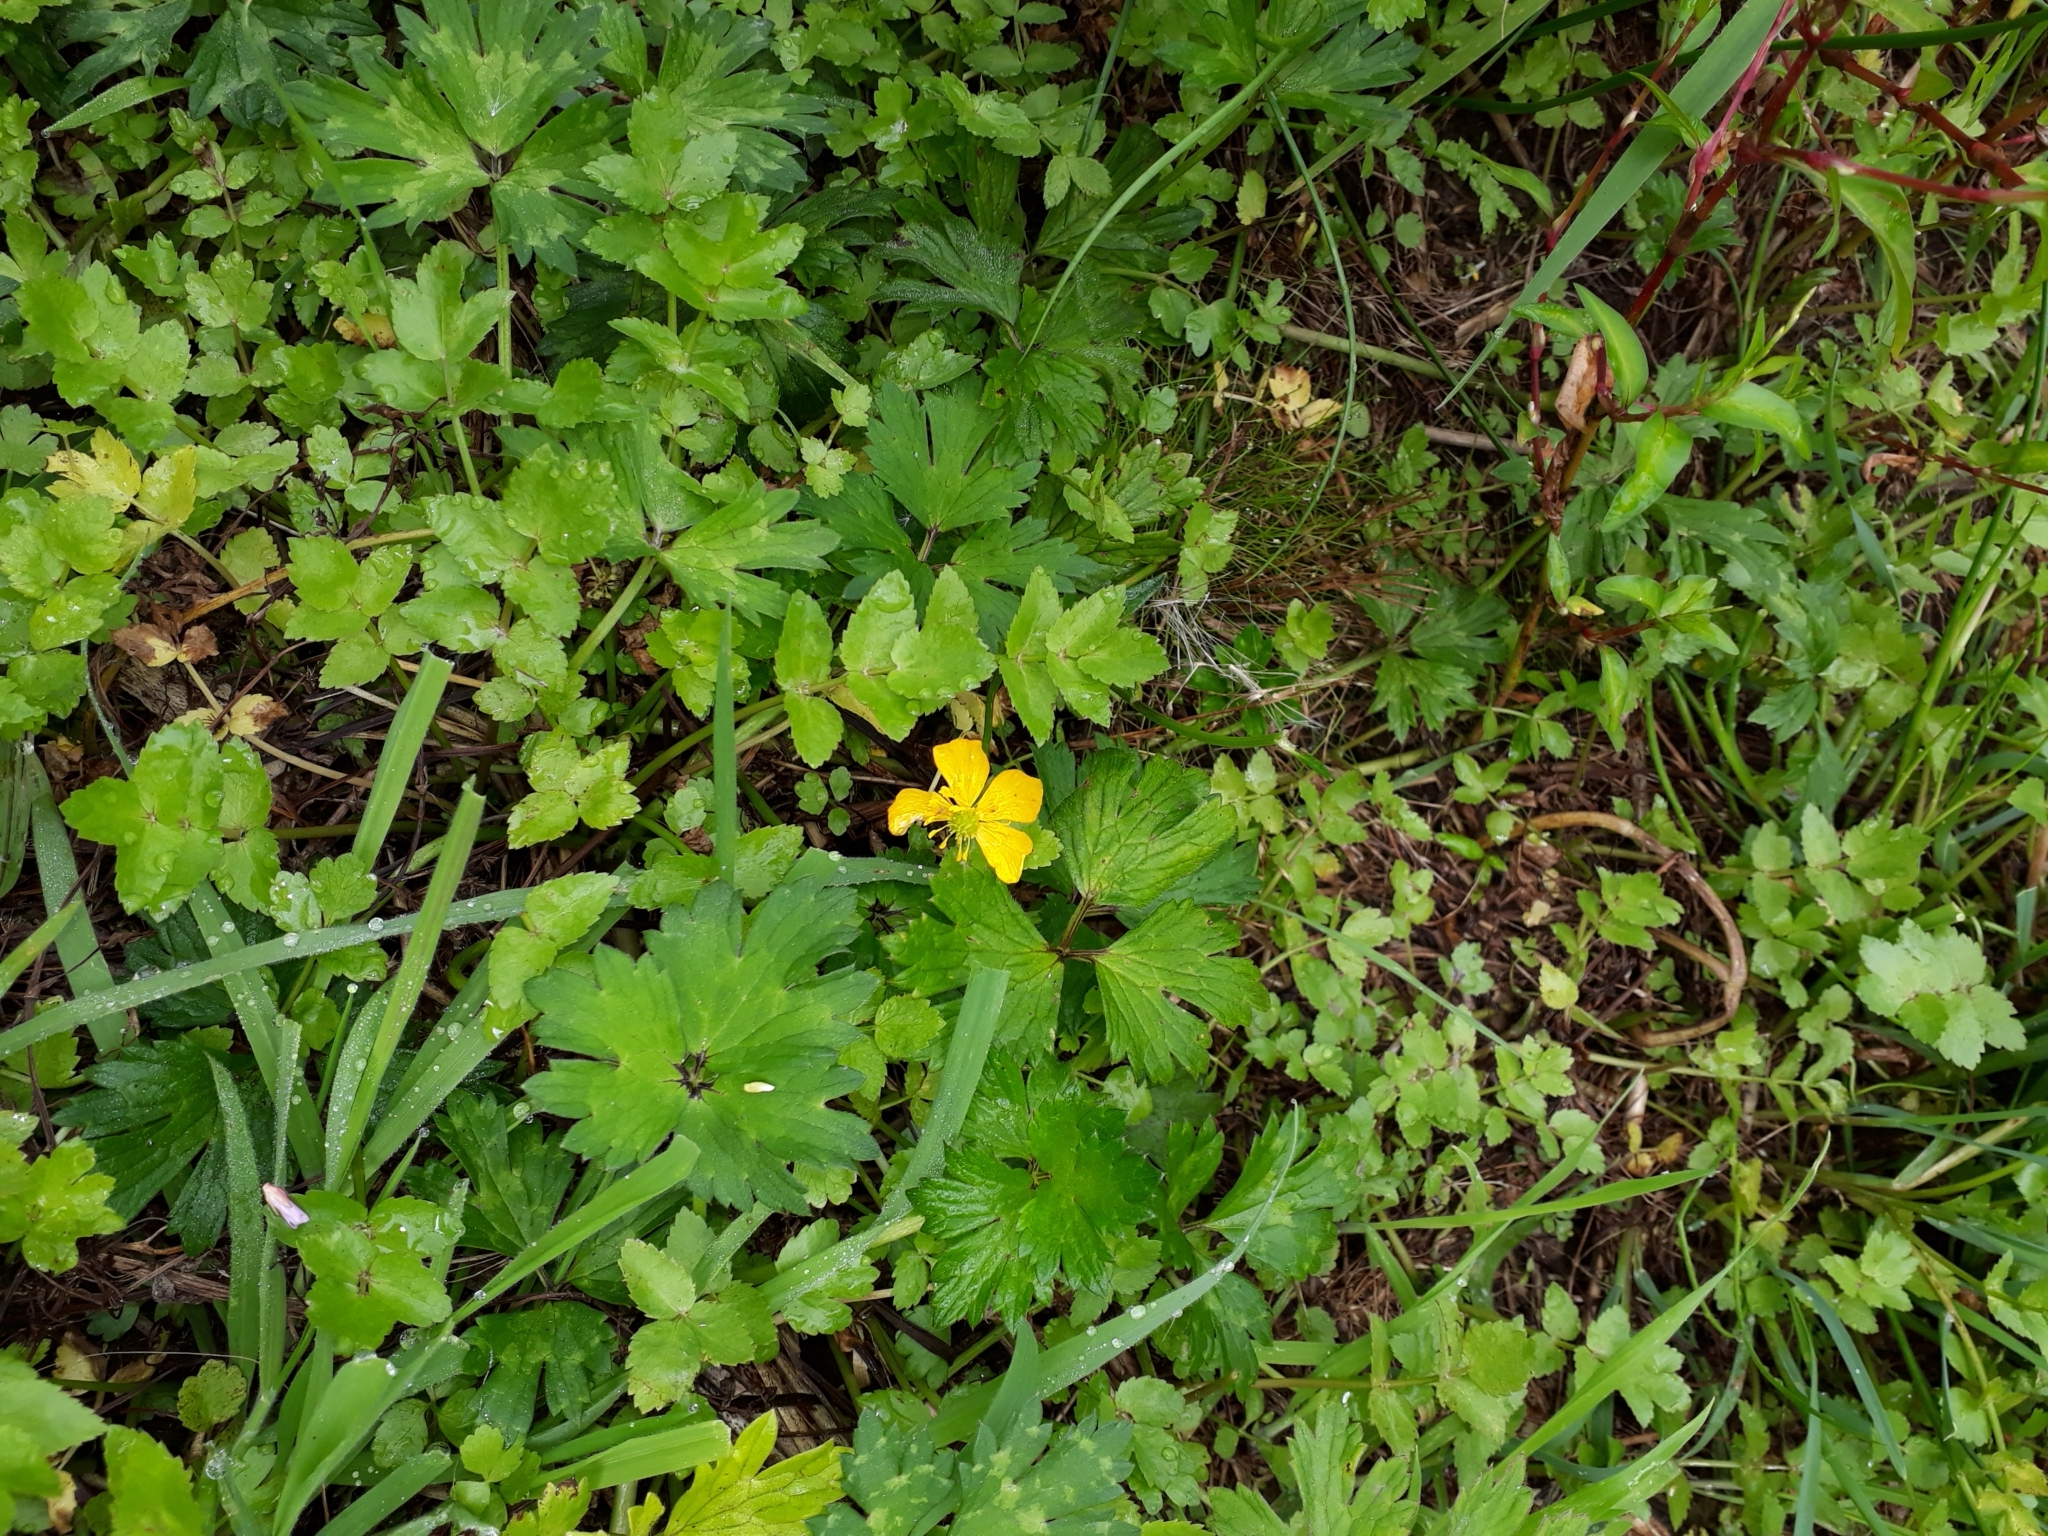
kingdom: Plantae
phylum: Tracheophyta
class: Magnoliopsida
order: Ranunculales
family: Ranunculaceae
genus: Ranunculus
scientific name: Ranunculus repens
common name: Creeping buttercup
